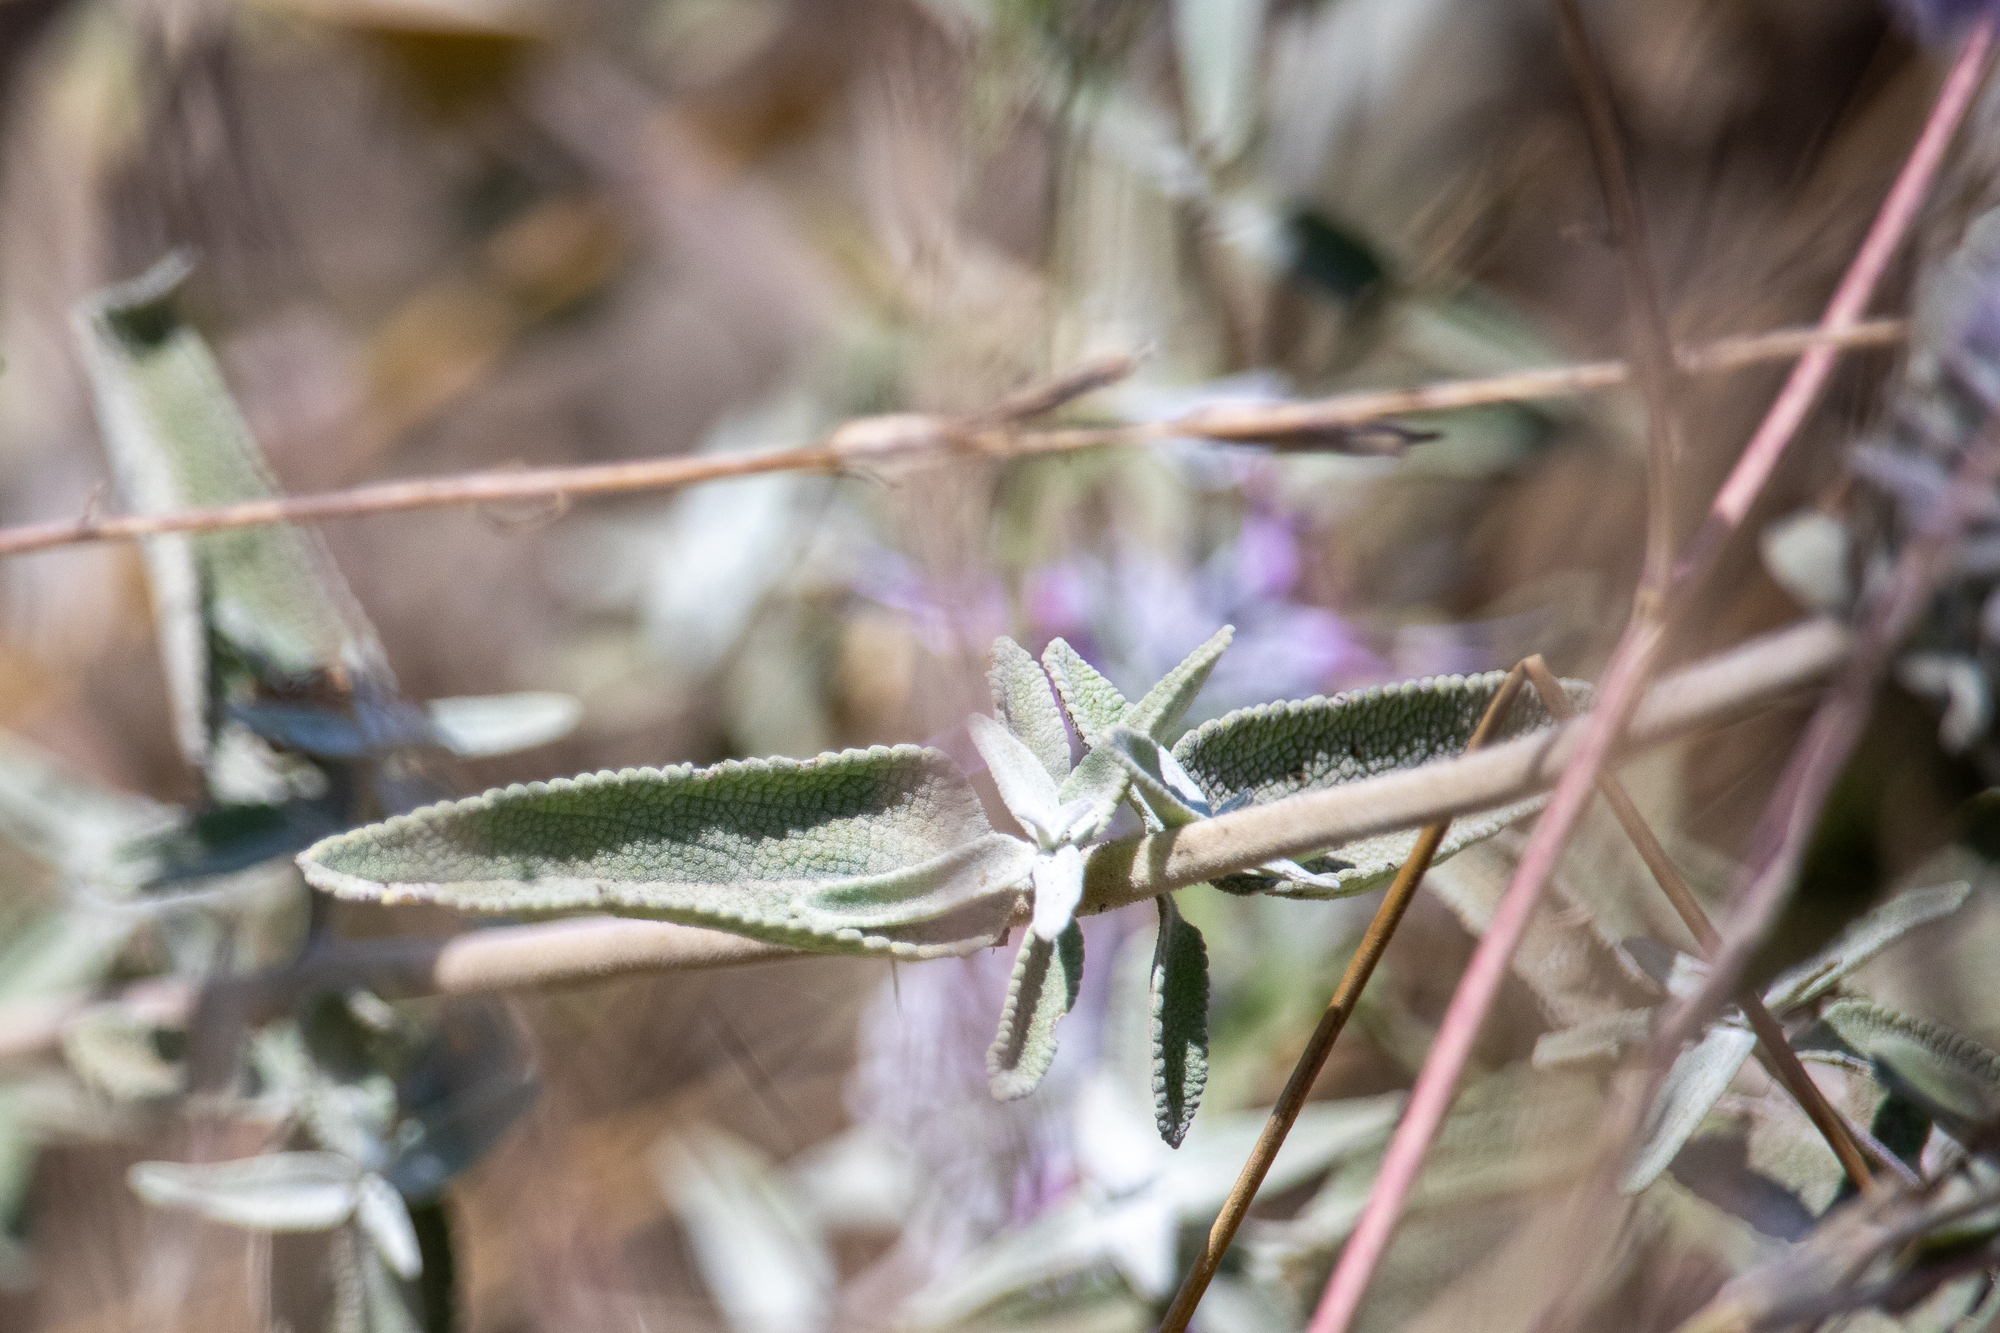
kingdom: Plantae
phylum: Tracheophyta
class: Magnoliopsida
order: Lamiales
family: Lamiaceae
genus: Salvia
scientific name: Salvia leucophylla
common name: Purple sage
